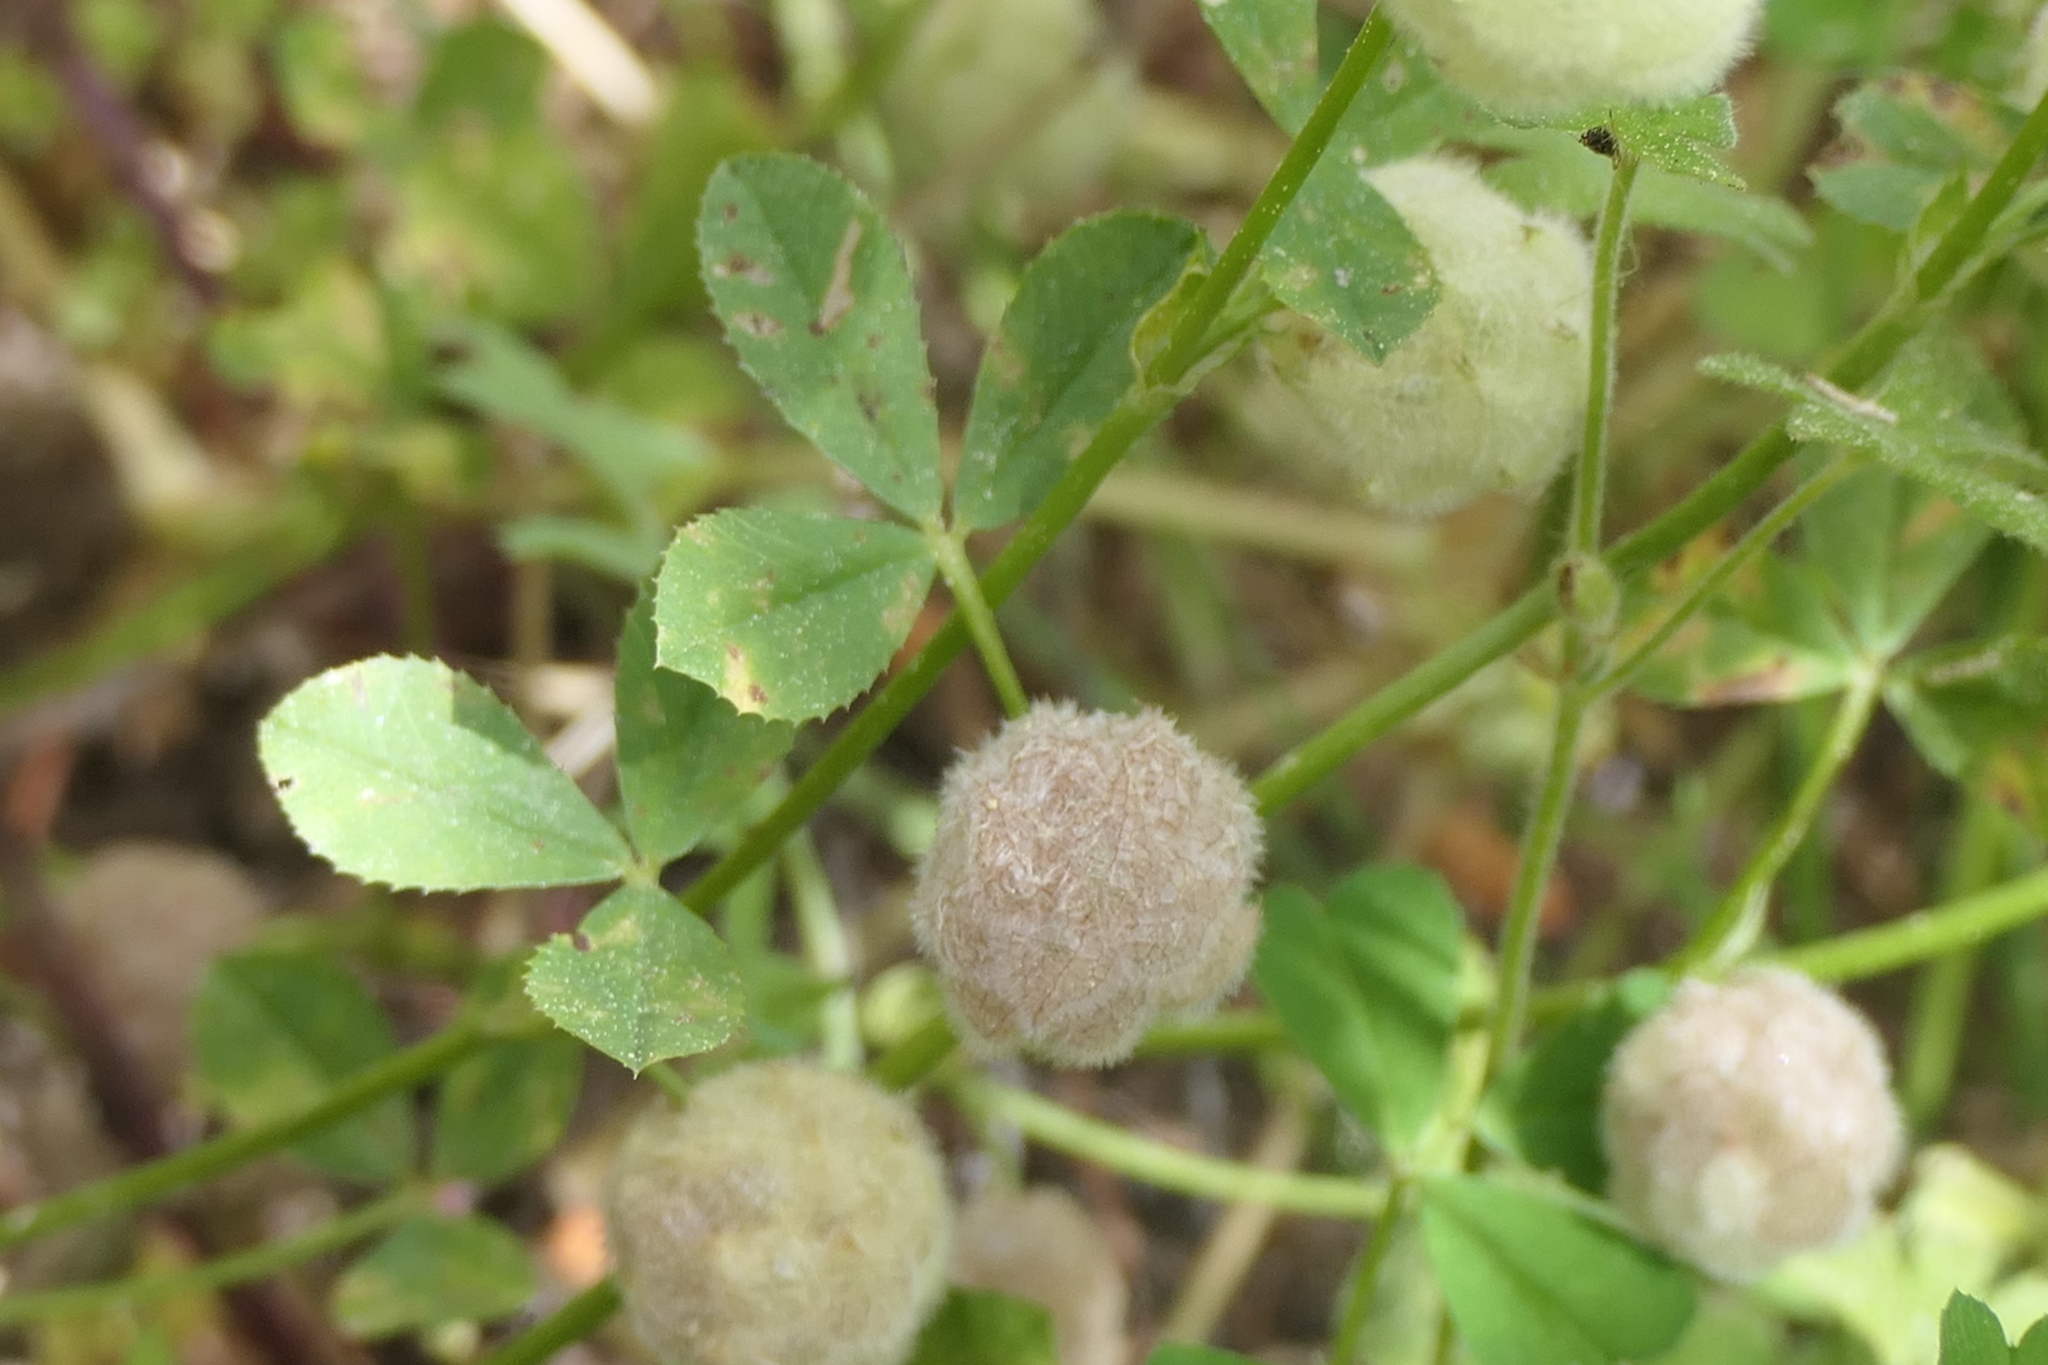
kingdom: Plantae
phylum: Tracheophyta
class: Magnoliopsida
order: Fabales
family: Fabaceae
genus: Trifolium
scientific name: Trifolium tomentosum
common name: Woolly clover
